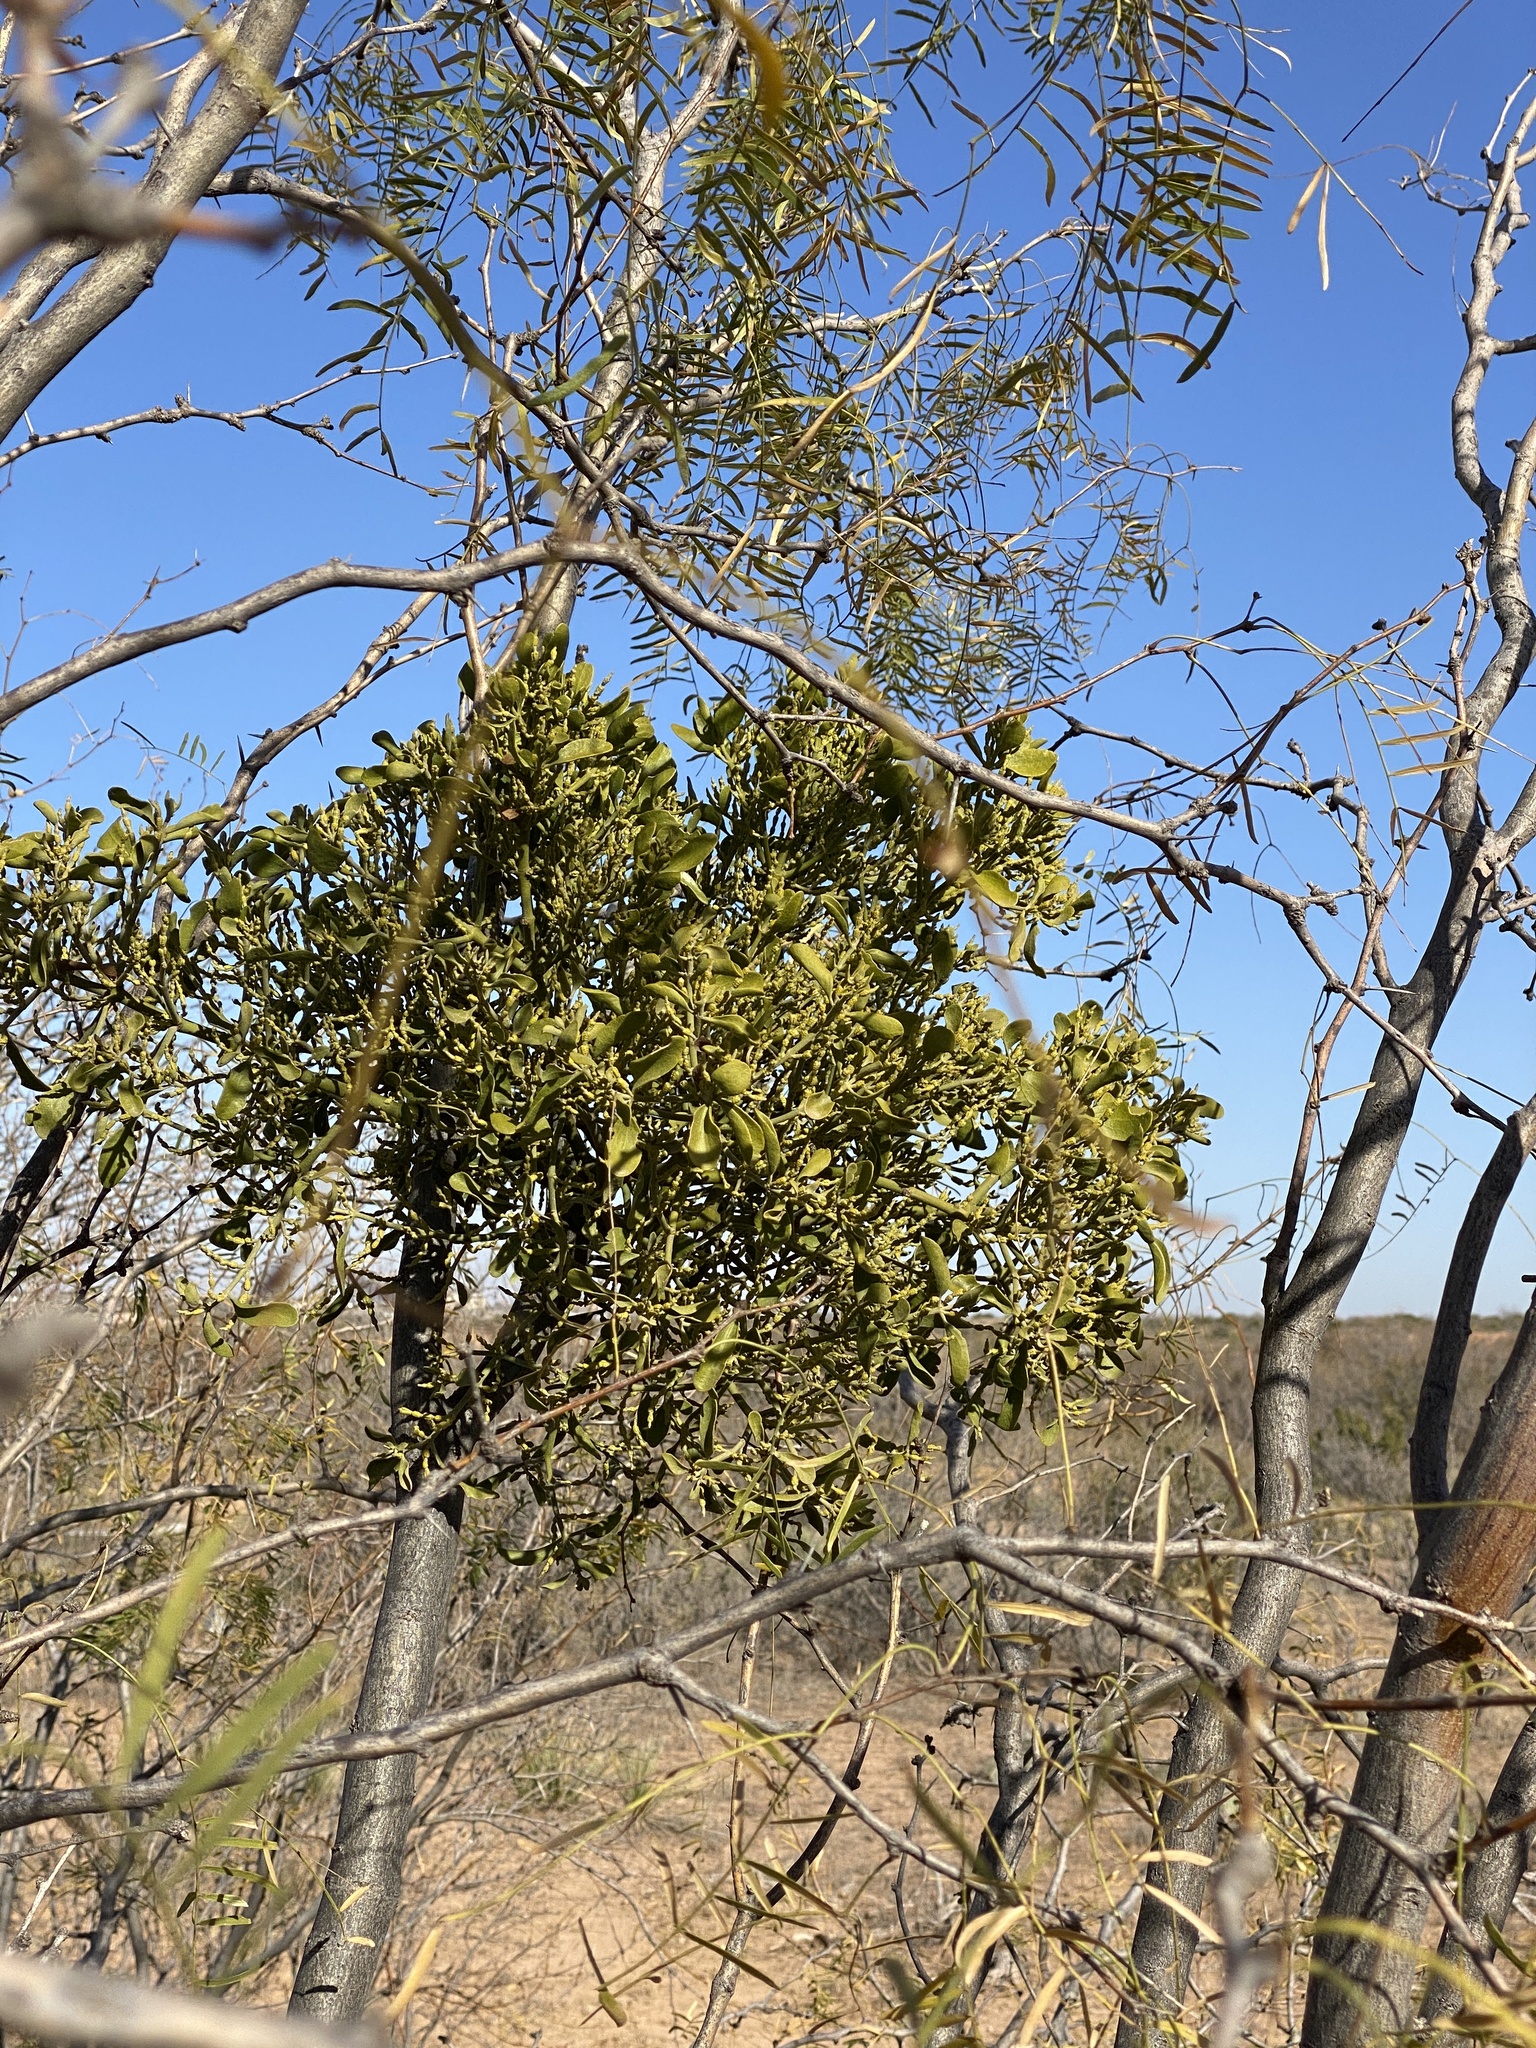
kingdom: Plantae
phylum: Tracheophyta
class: Magnoliopsida
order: Santalales
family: Viscaceae
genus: Phoradendron
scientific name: Phoradendron leucarpum
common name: Pacific mistletoe
